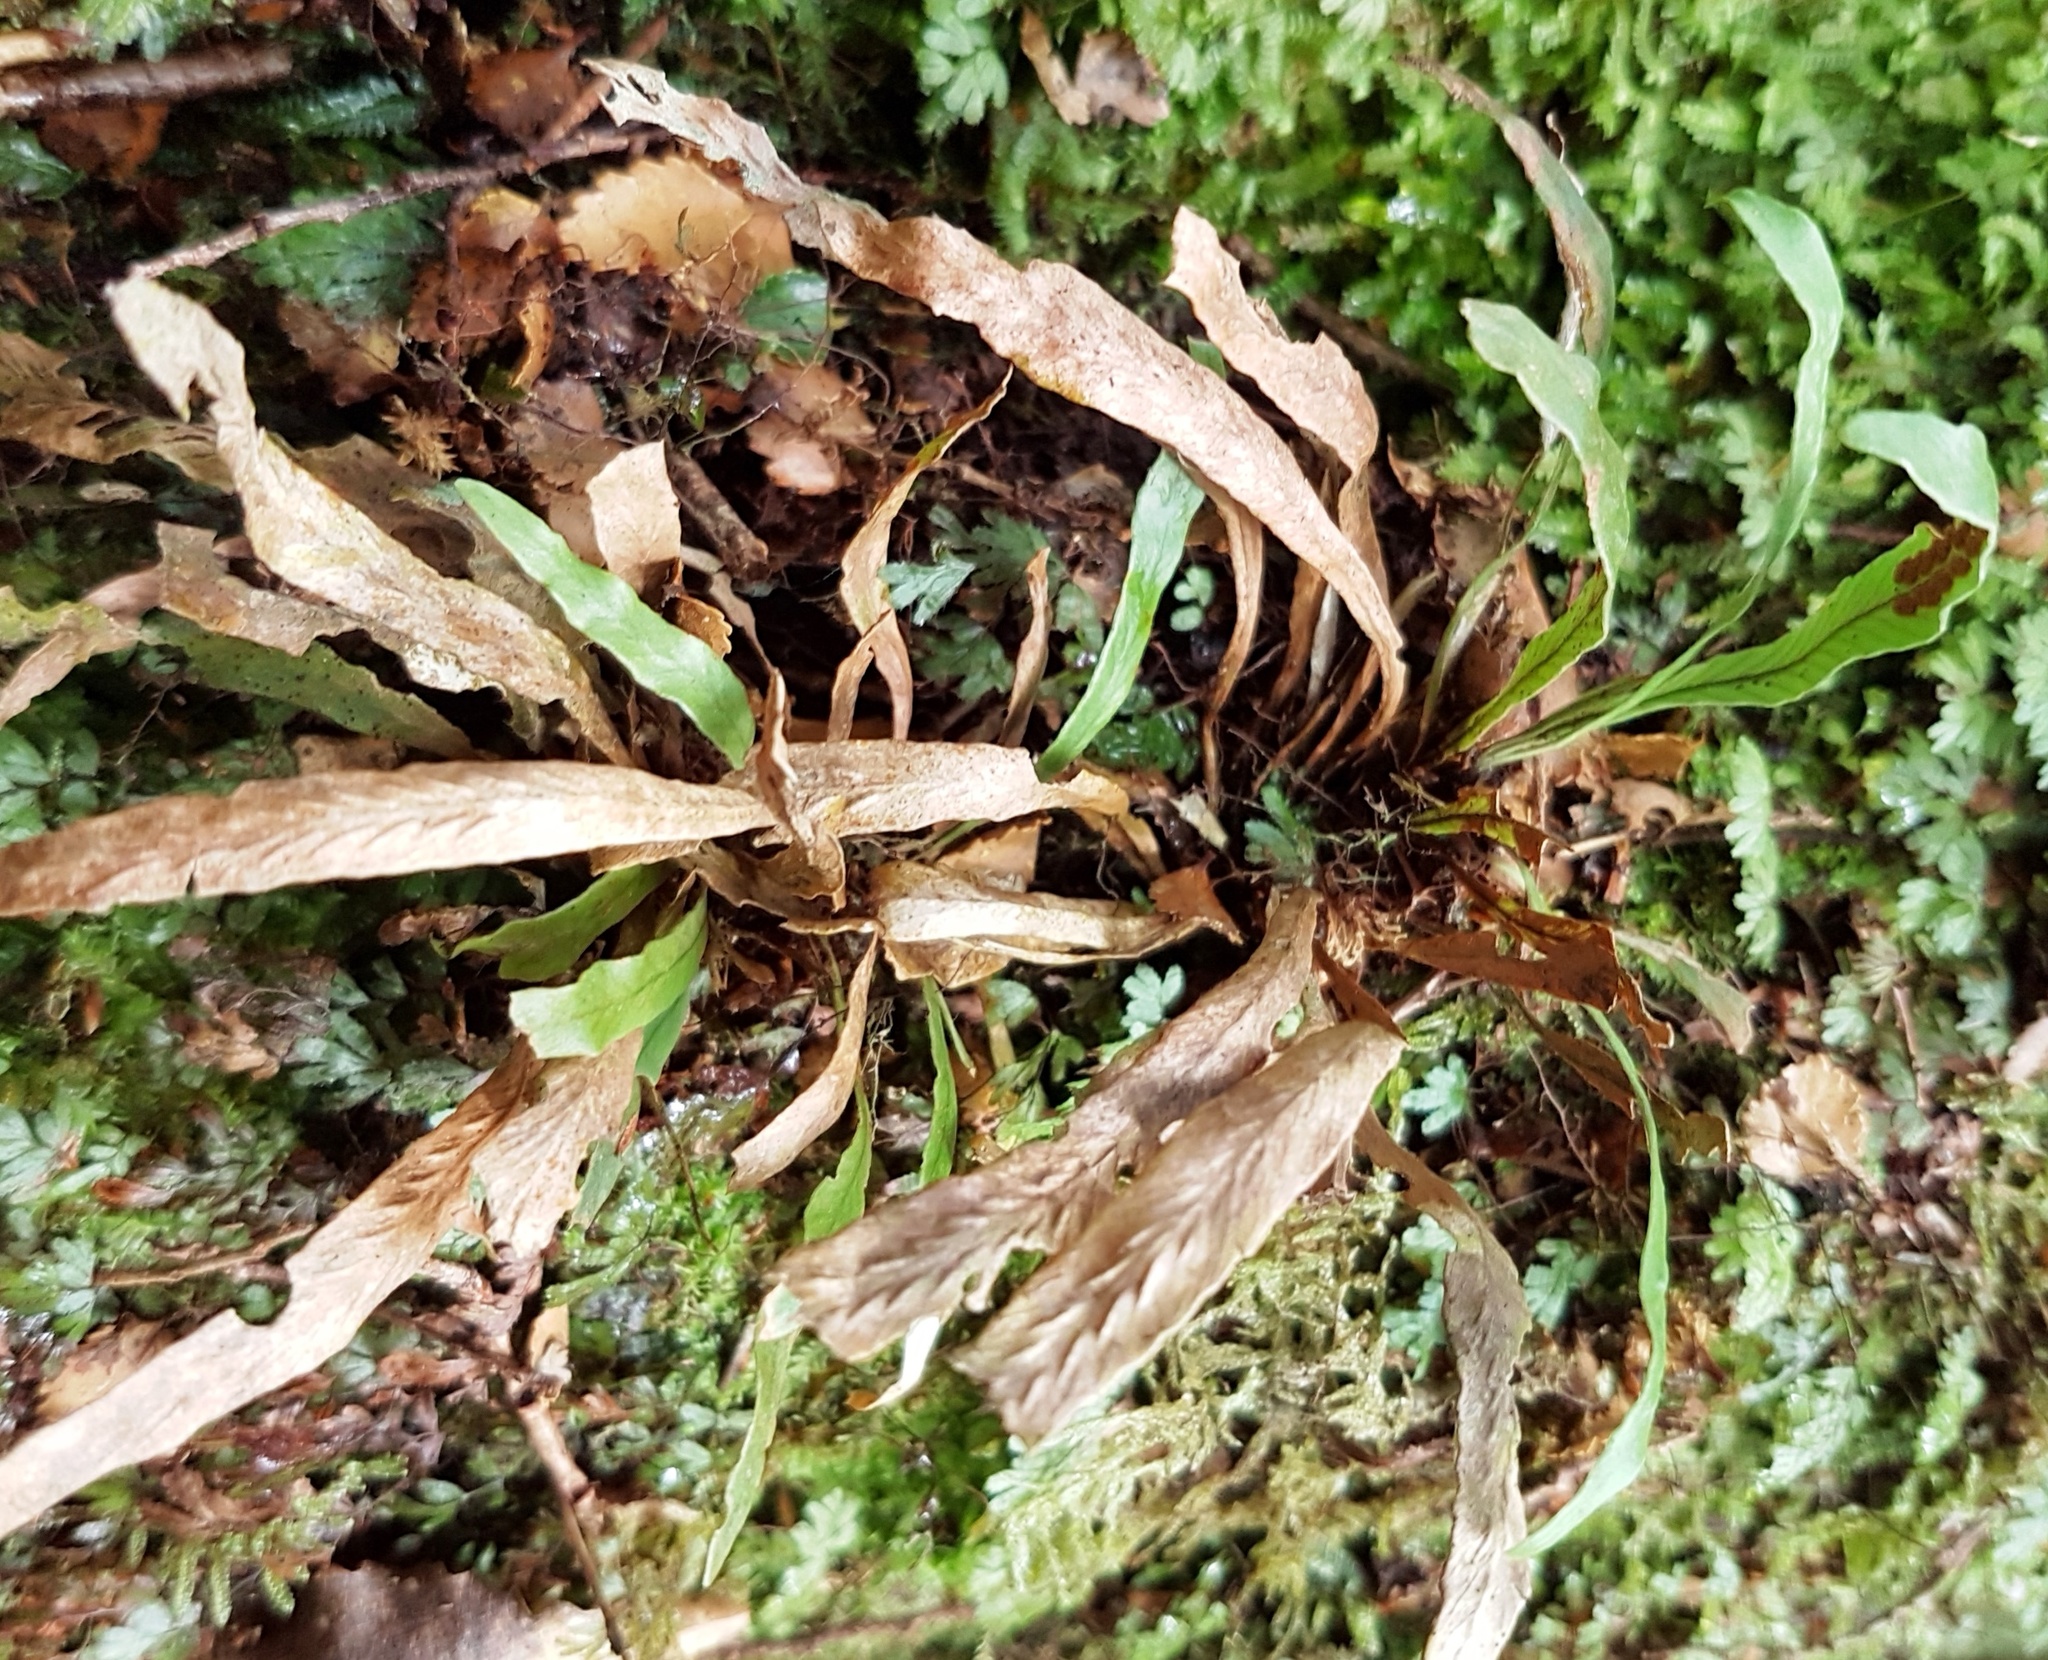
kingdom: Plantae
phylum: Tracheophyta
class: Polypodiopsida
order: Polypodiales
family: Polypodiaceae
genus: Notogrammitis
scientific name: Notogrammitis billardierei
